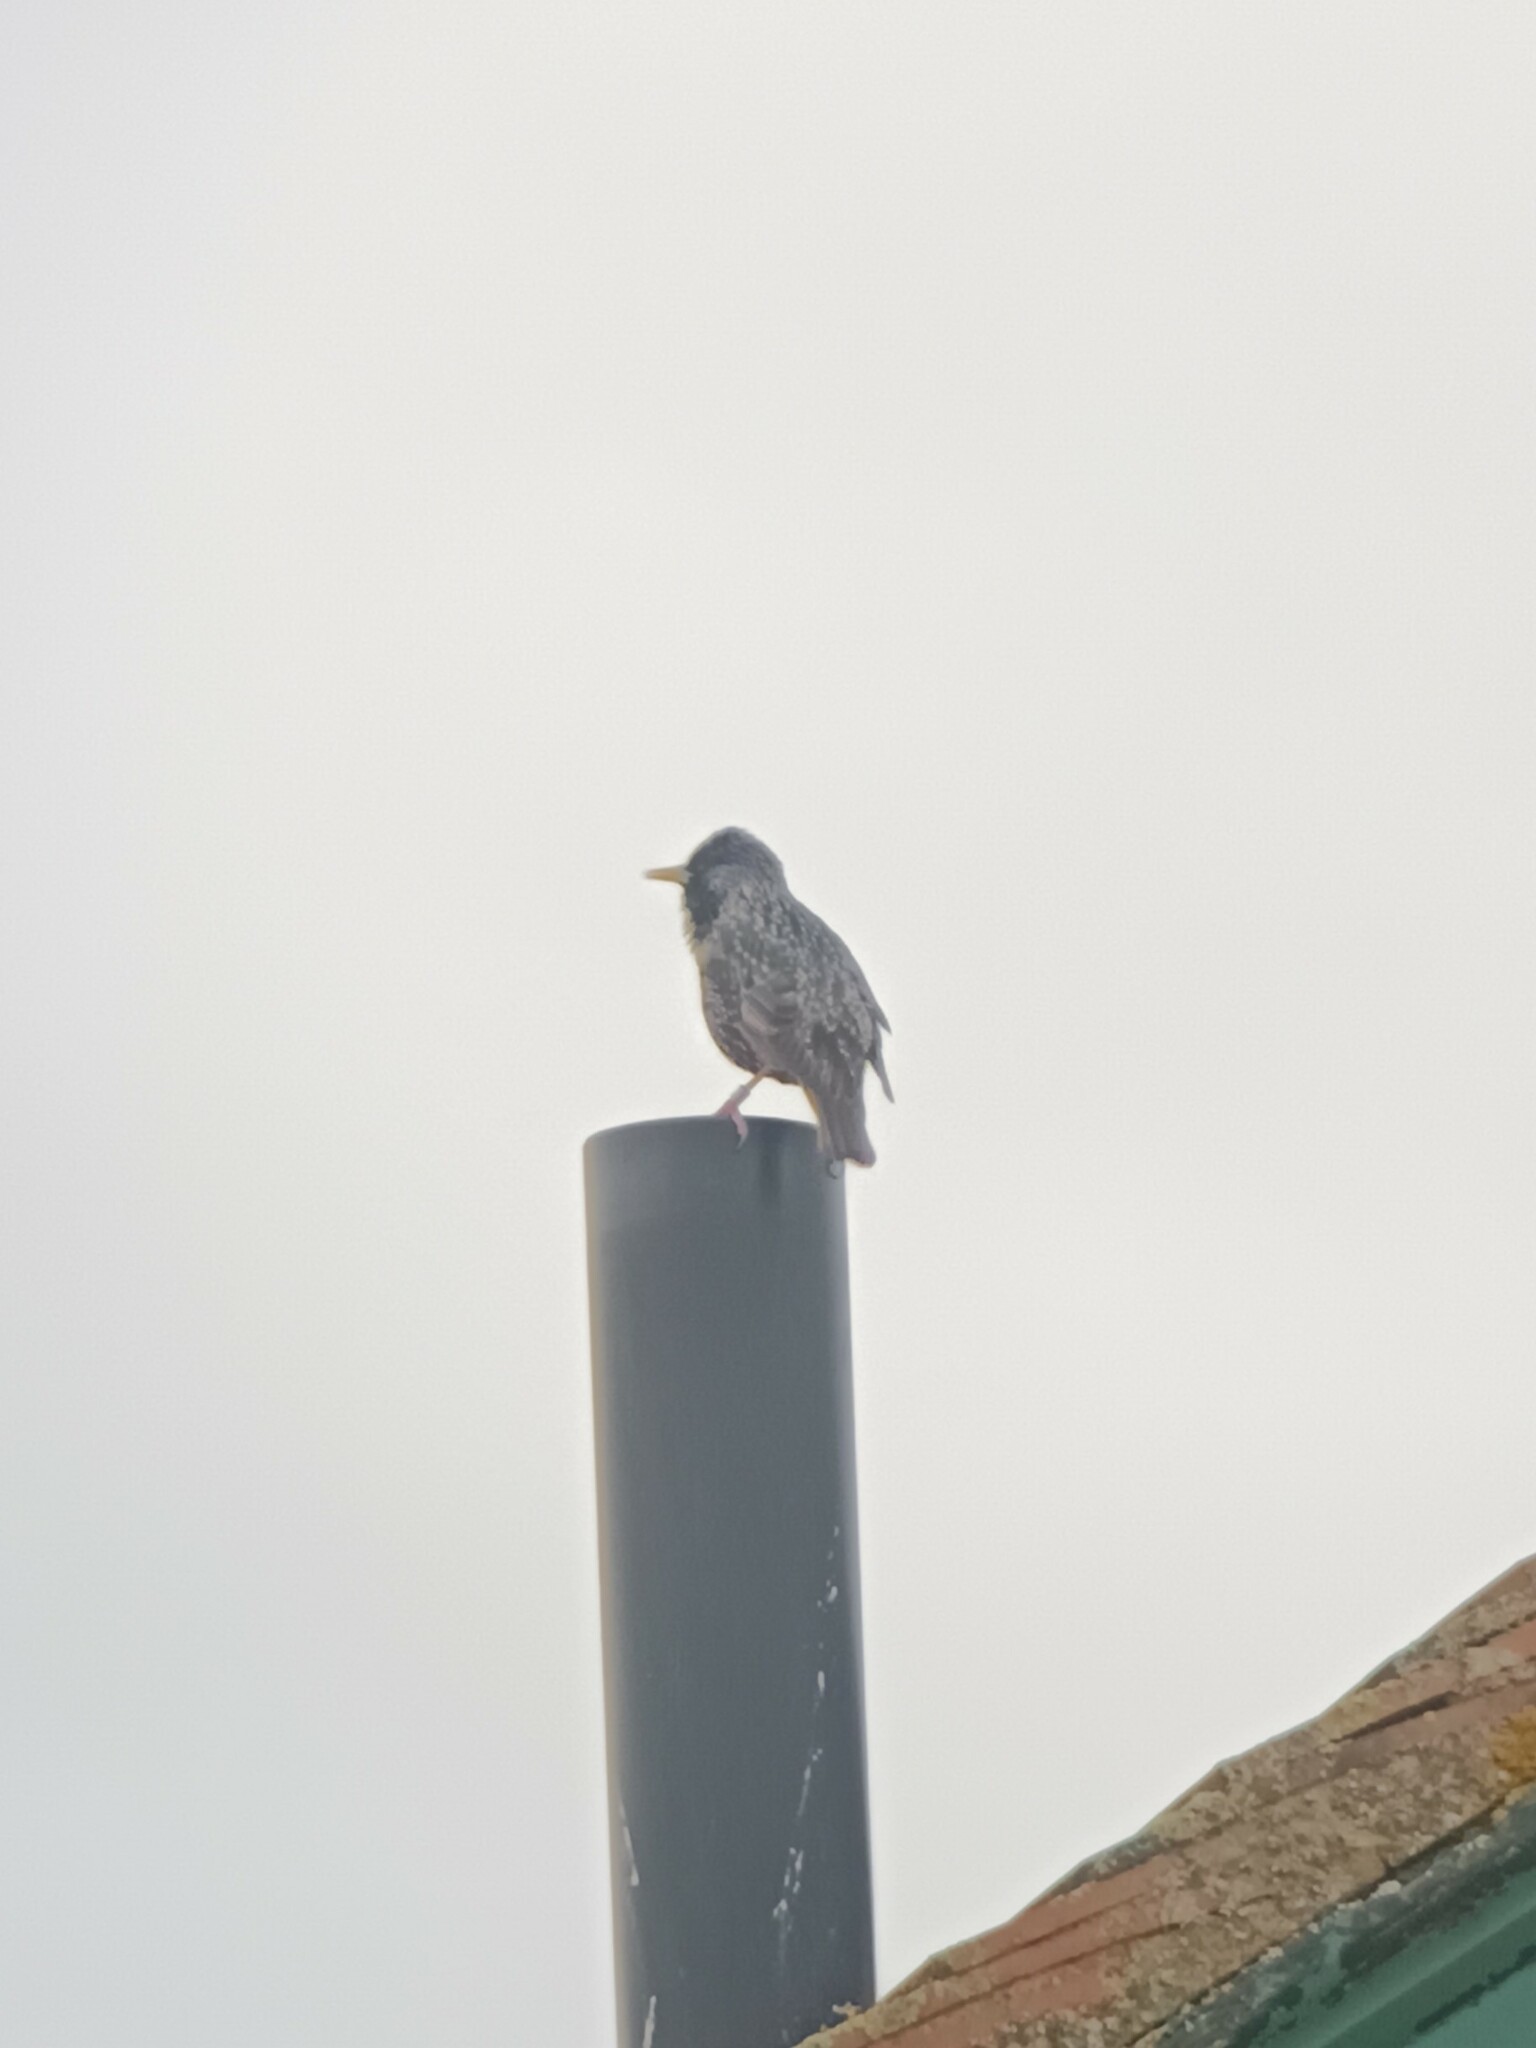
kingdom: Animalia
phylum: Chordata
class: Aves
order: Passeriformes
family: Sturnidae
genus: Sturnus
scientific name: Sturnus vulgaris
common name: Common starling
